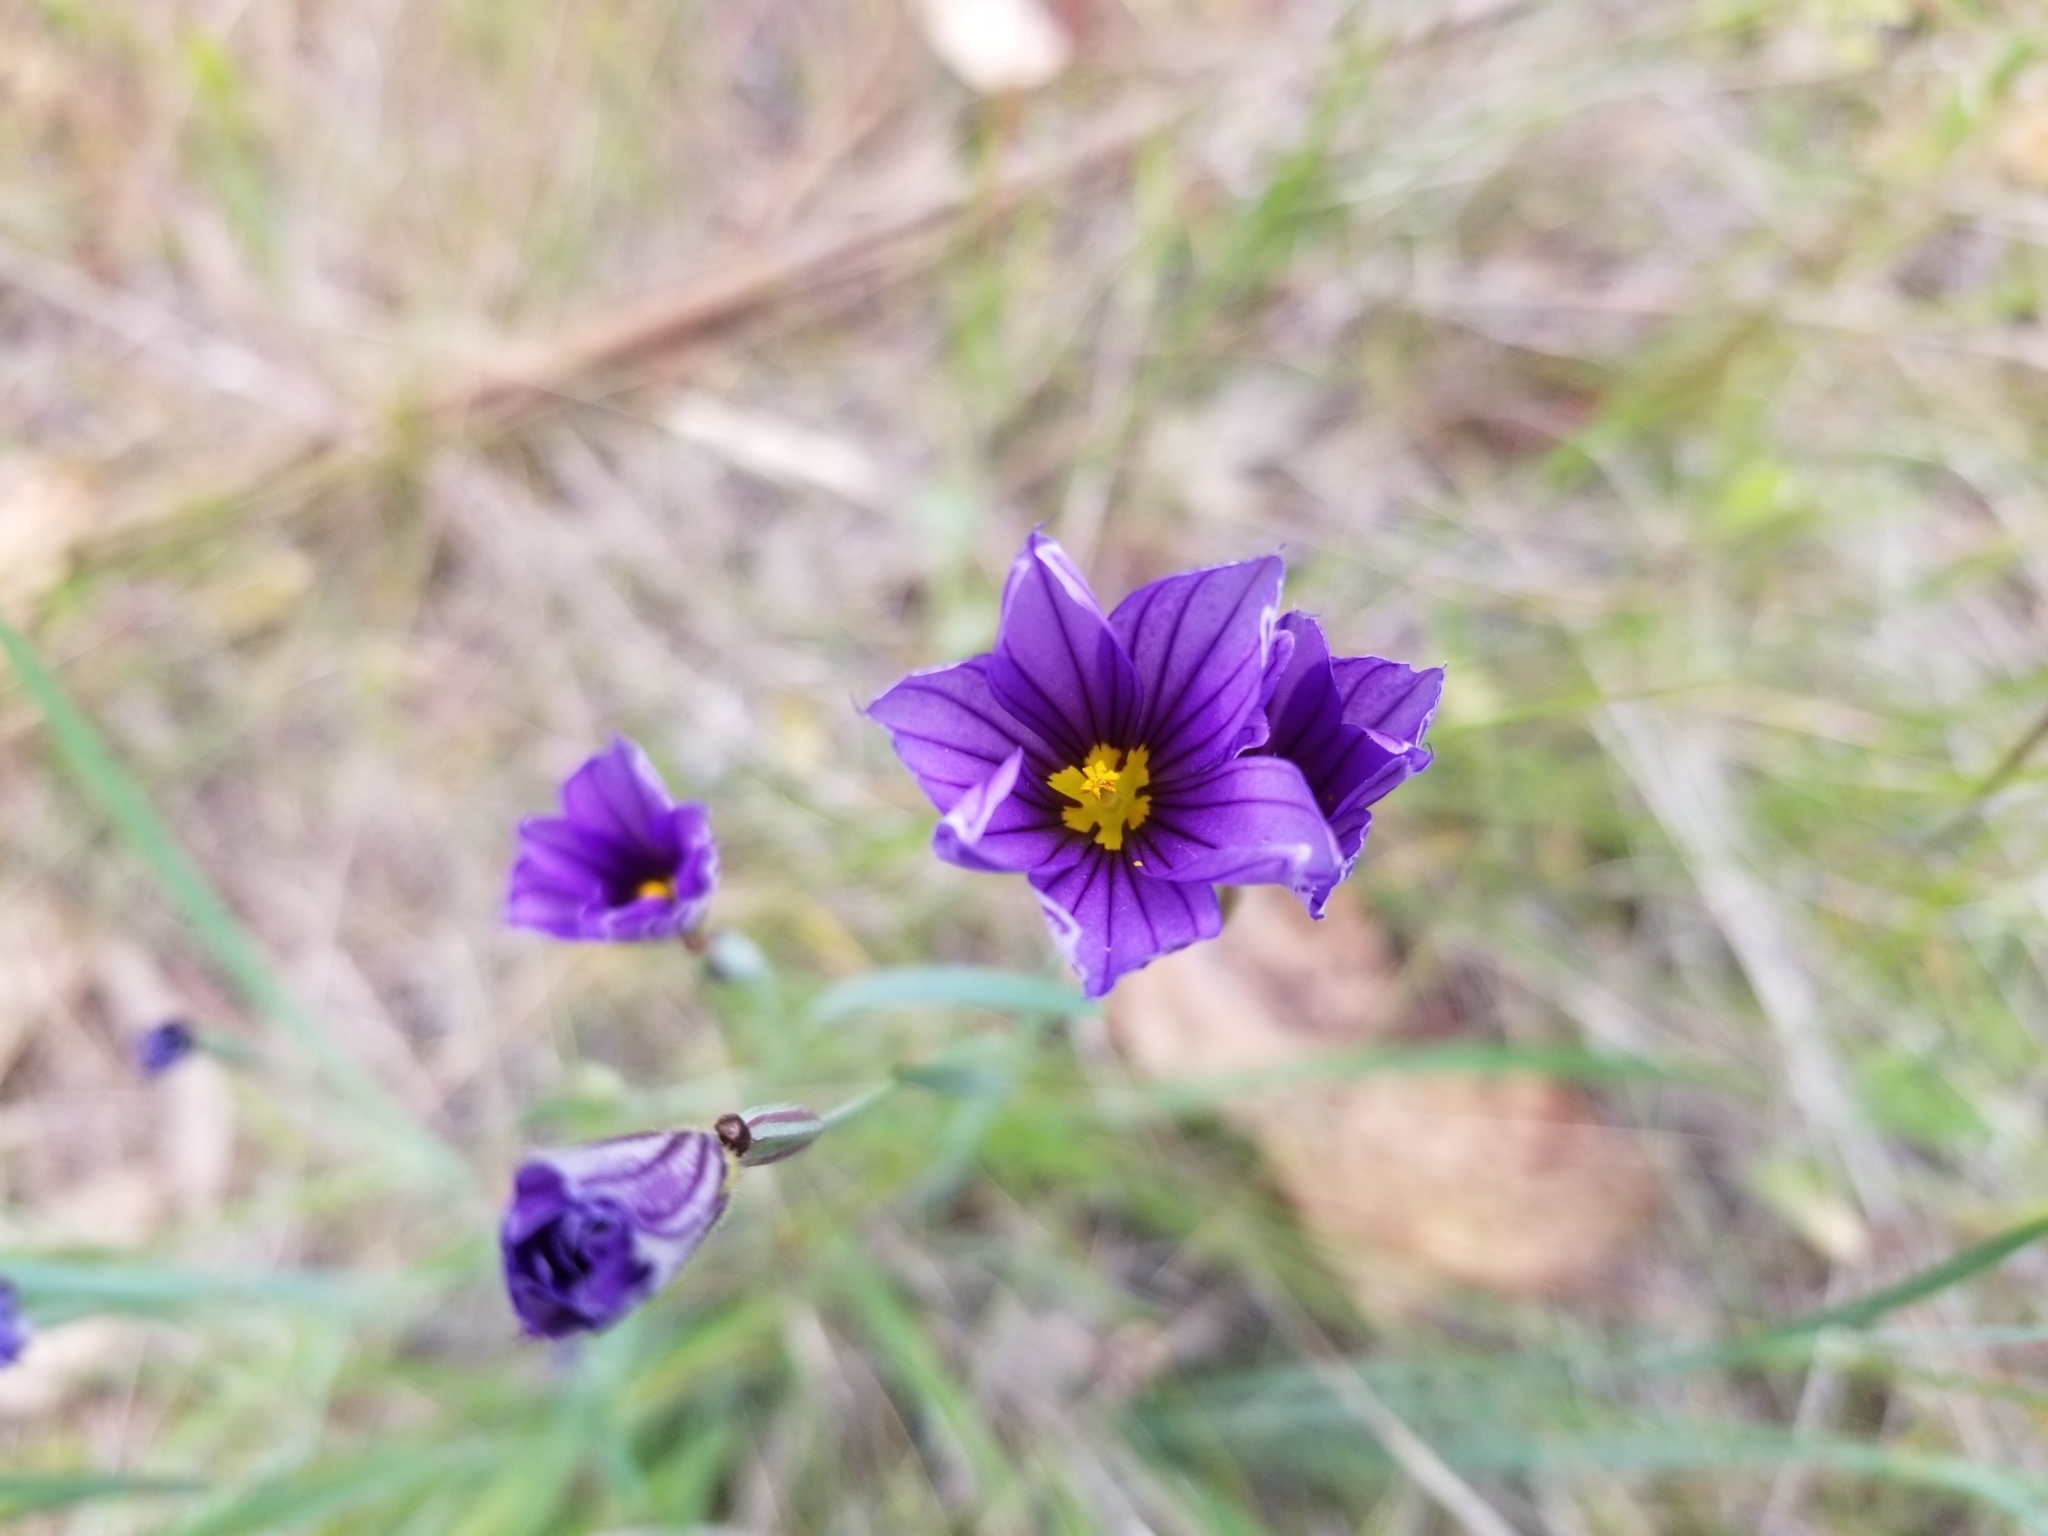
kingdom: Plantae
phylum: Tracheophyta
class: Liliopsida
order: Asparagales
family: Iridaceae
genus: Sisyrinchium
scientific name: Sisyrinchium bellum
